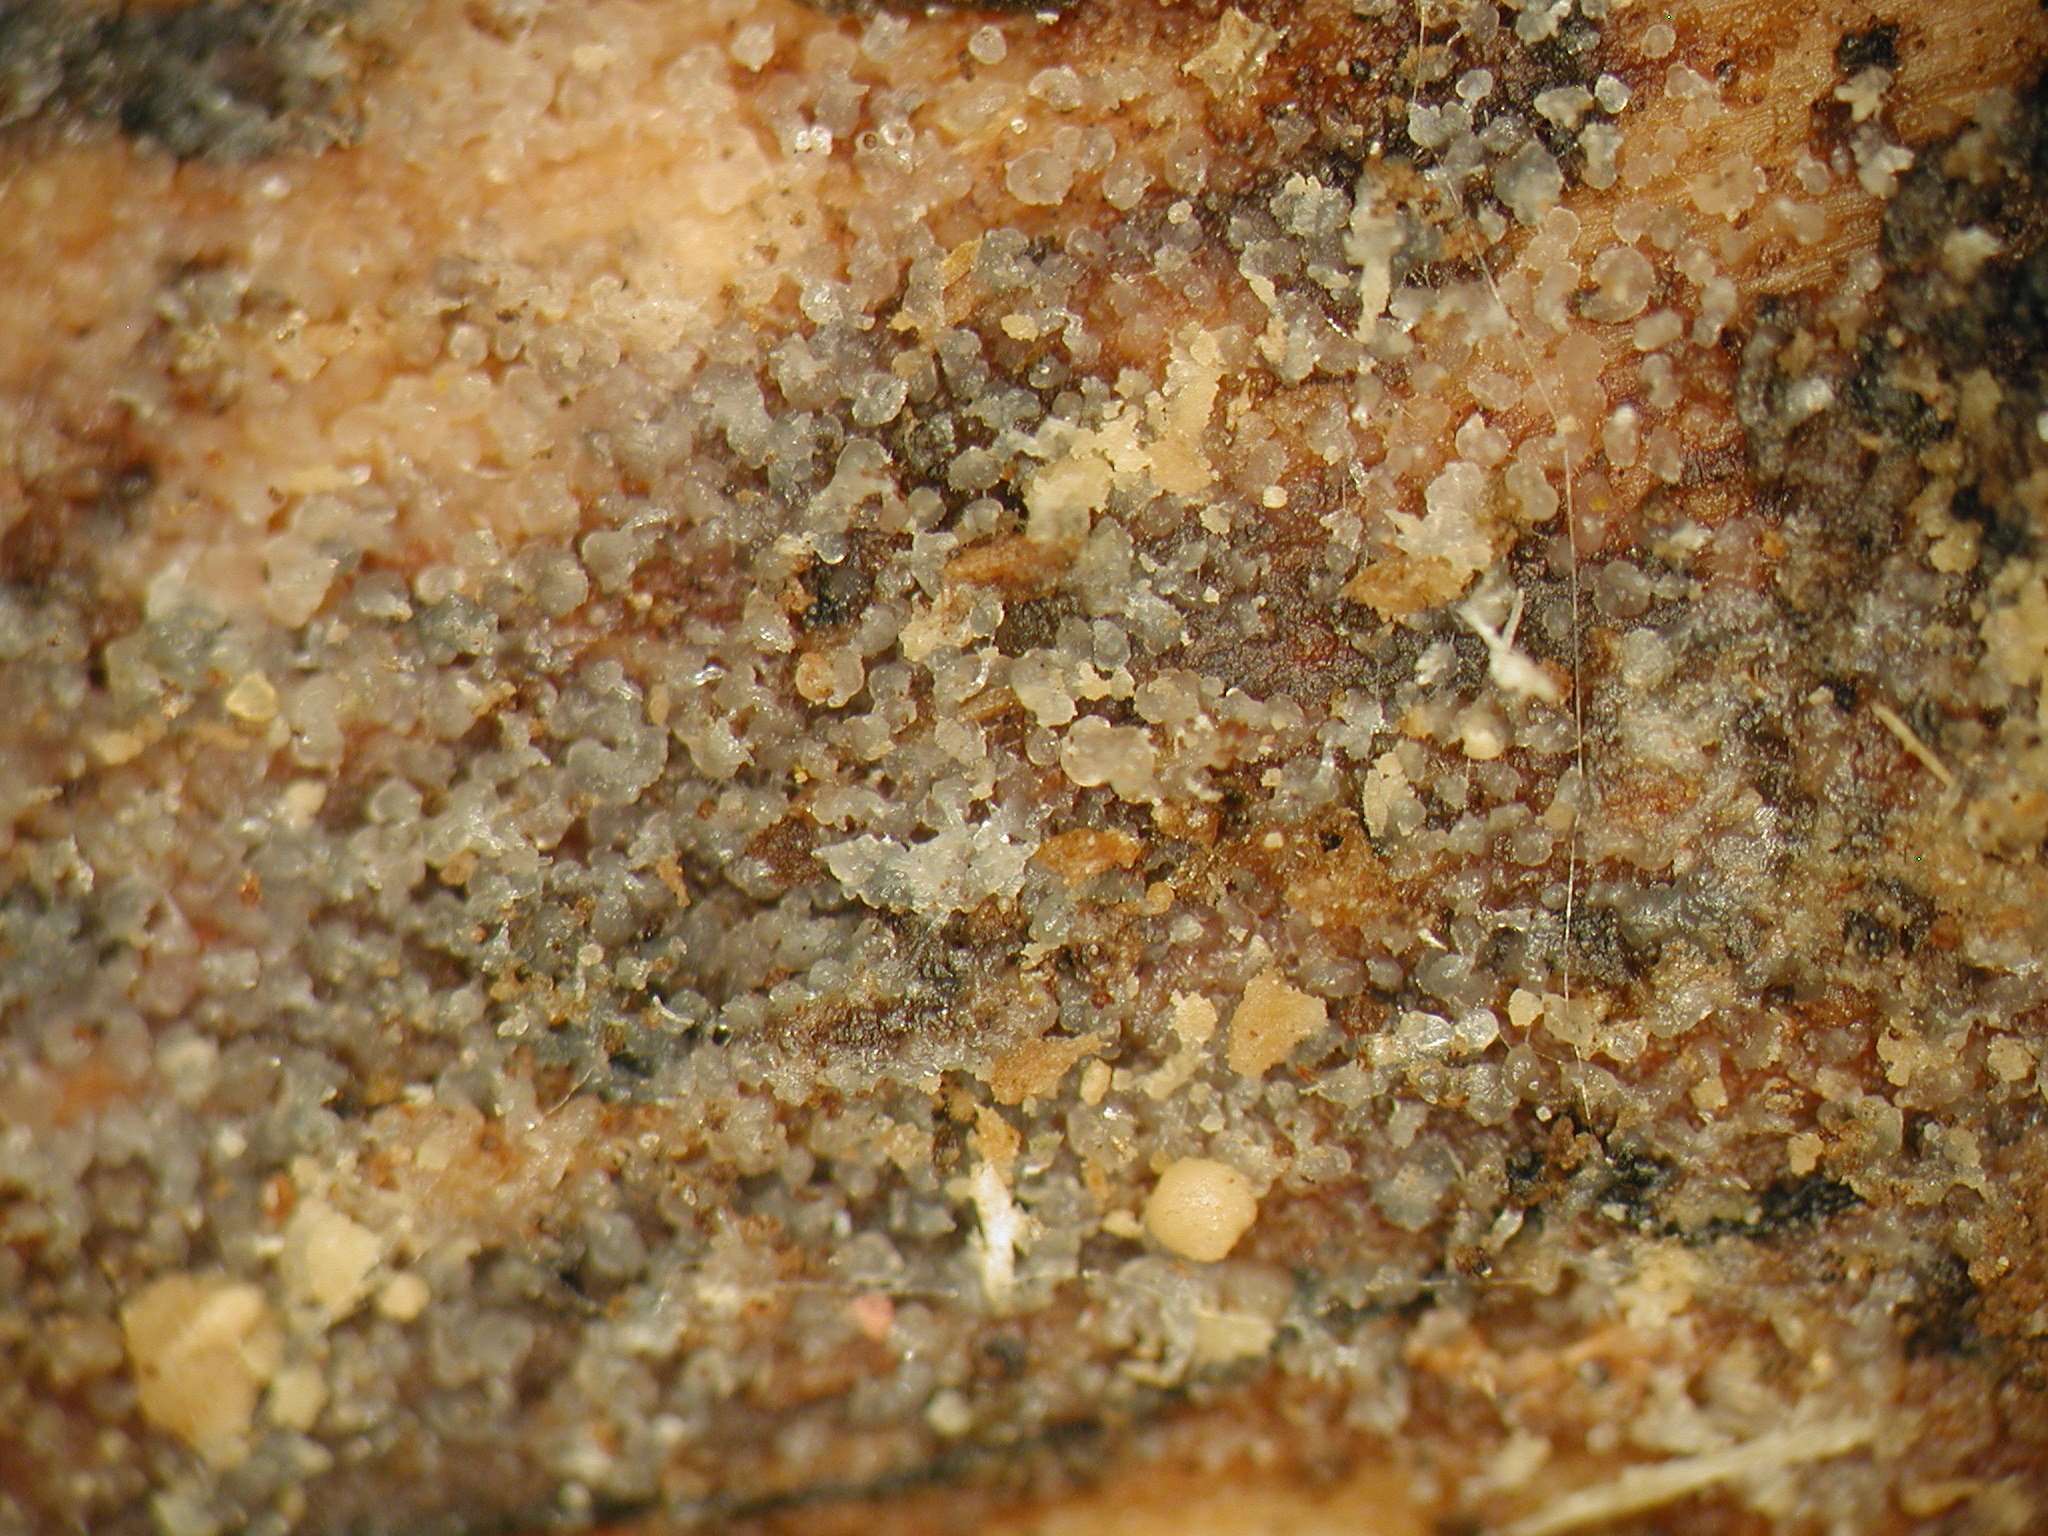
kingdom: Fungi
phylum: Basidiomycota
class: Agaricomycetes
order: Auriculariales
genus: Stypella
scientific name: Stypella subgelatinosa
